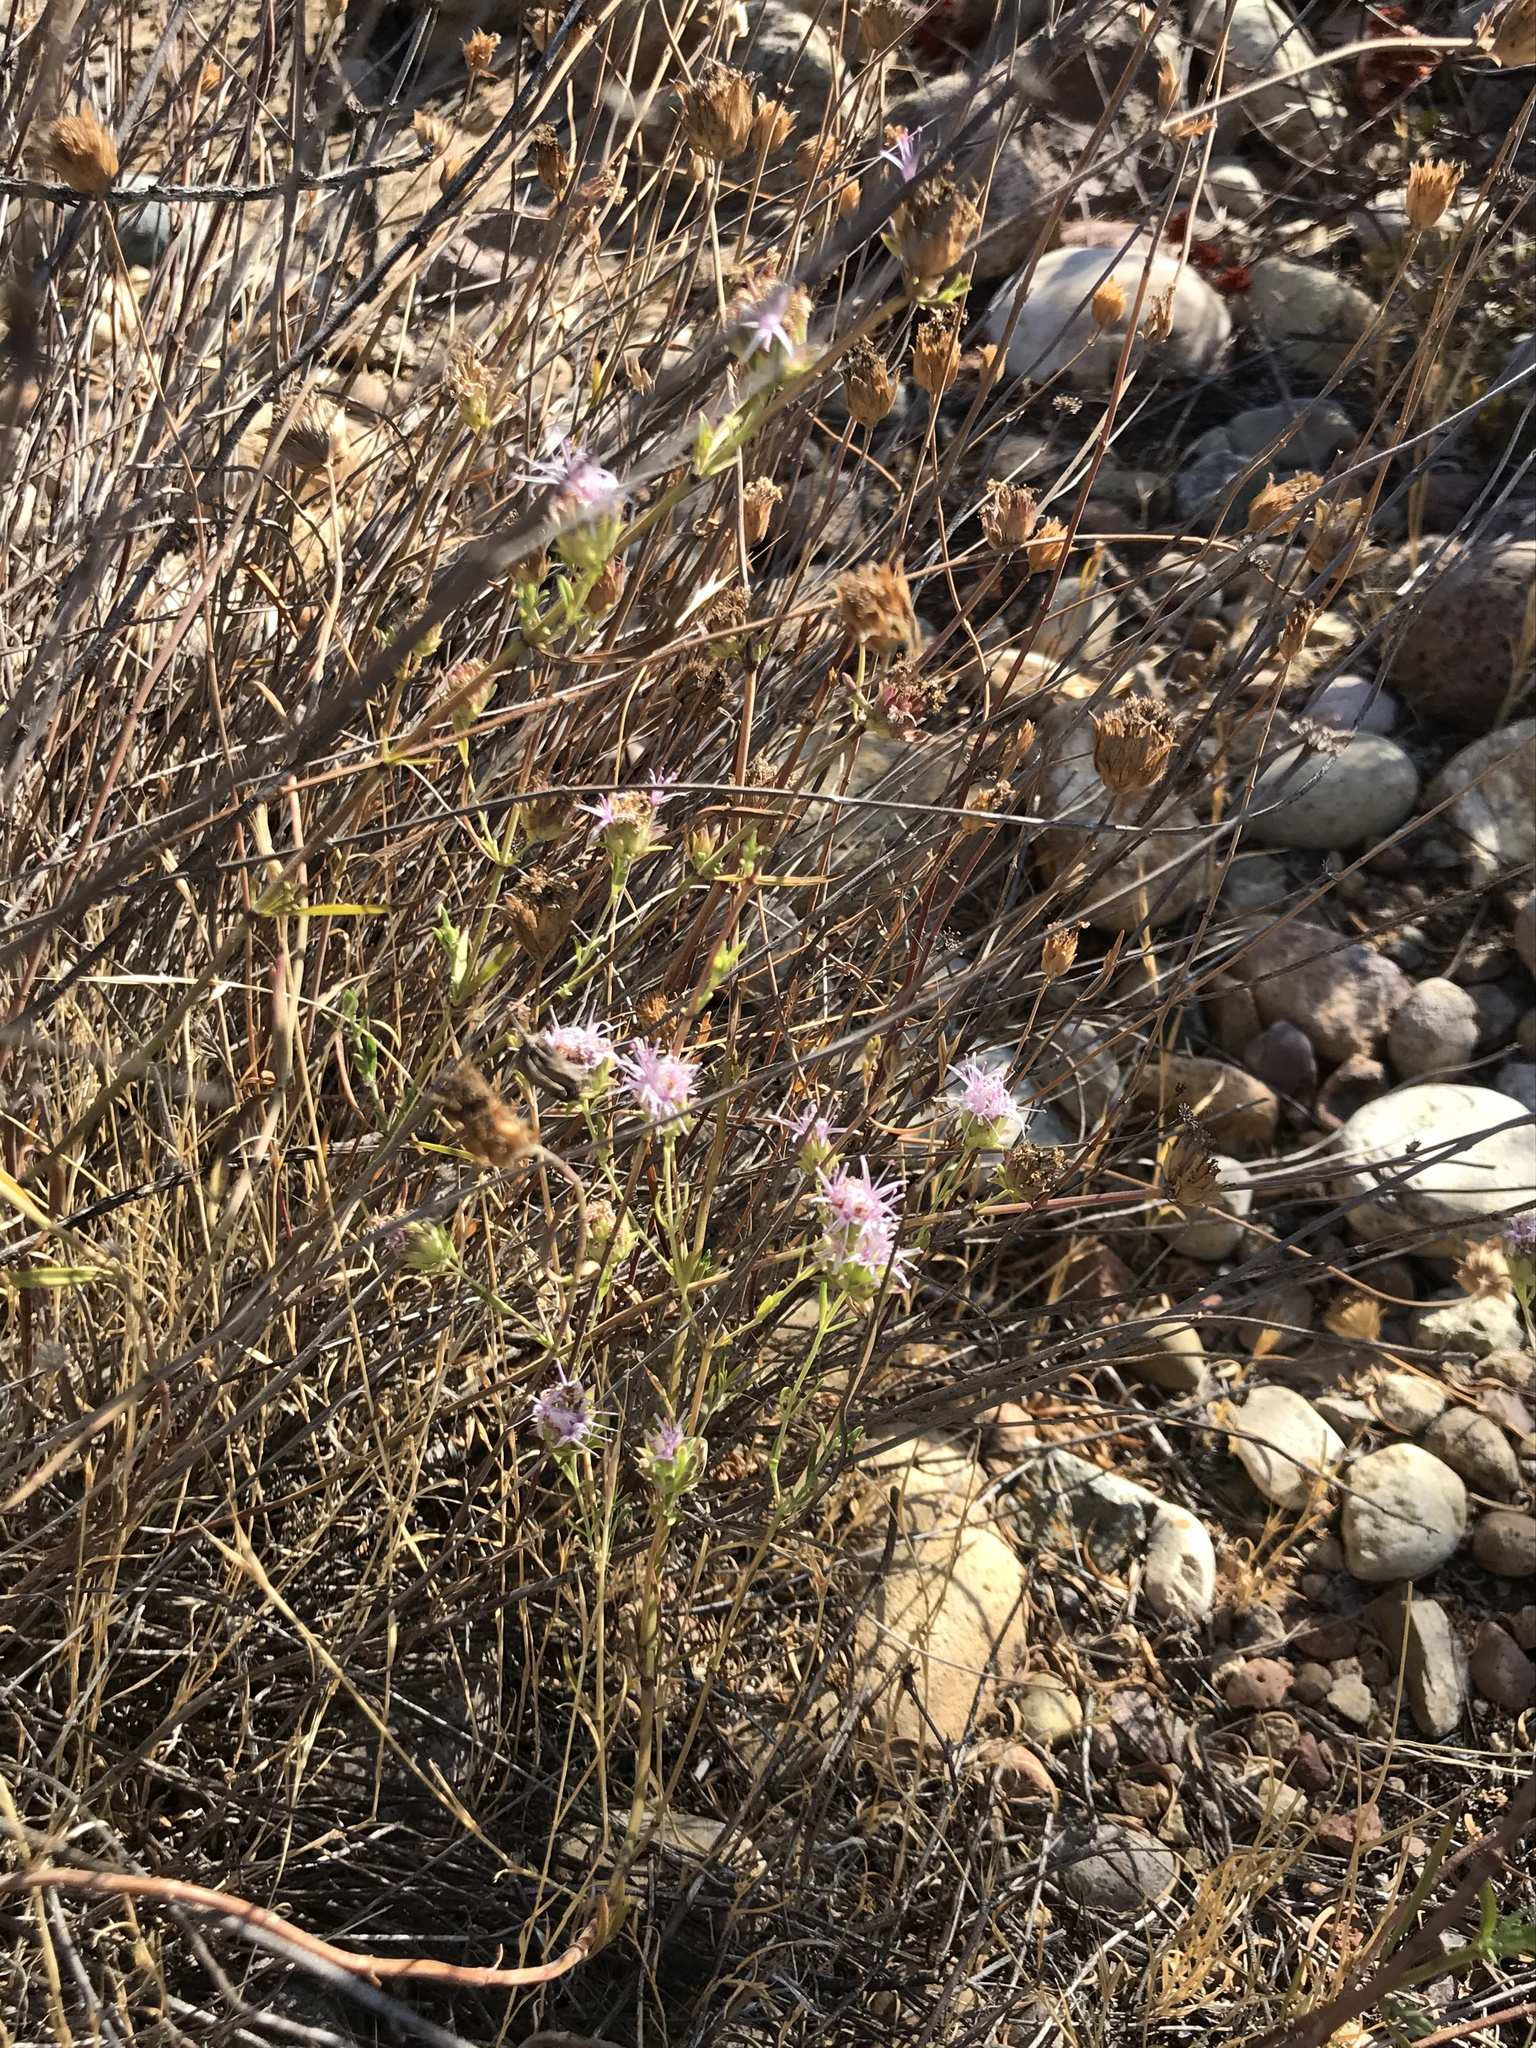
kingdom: Plantae
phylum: Tracheophyta
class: Magnoliopsida
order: Lamiales
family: Lamiaceae
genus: Monardella
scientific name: Monardella viminea
